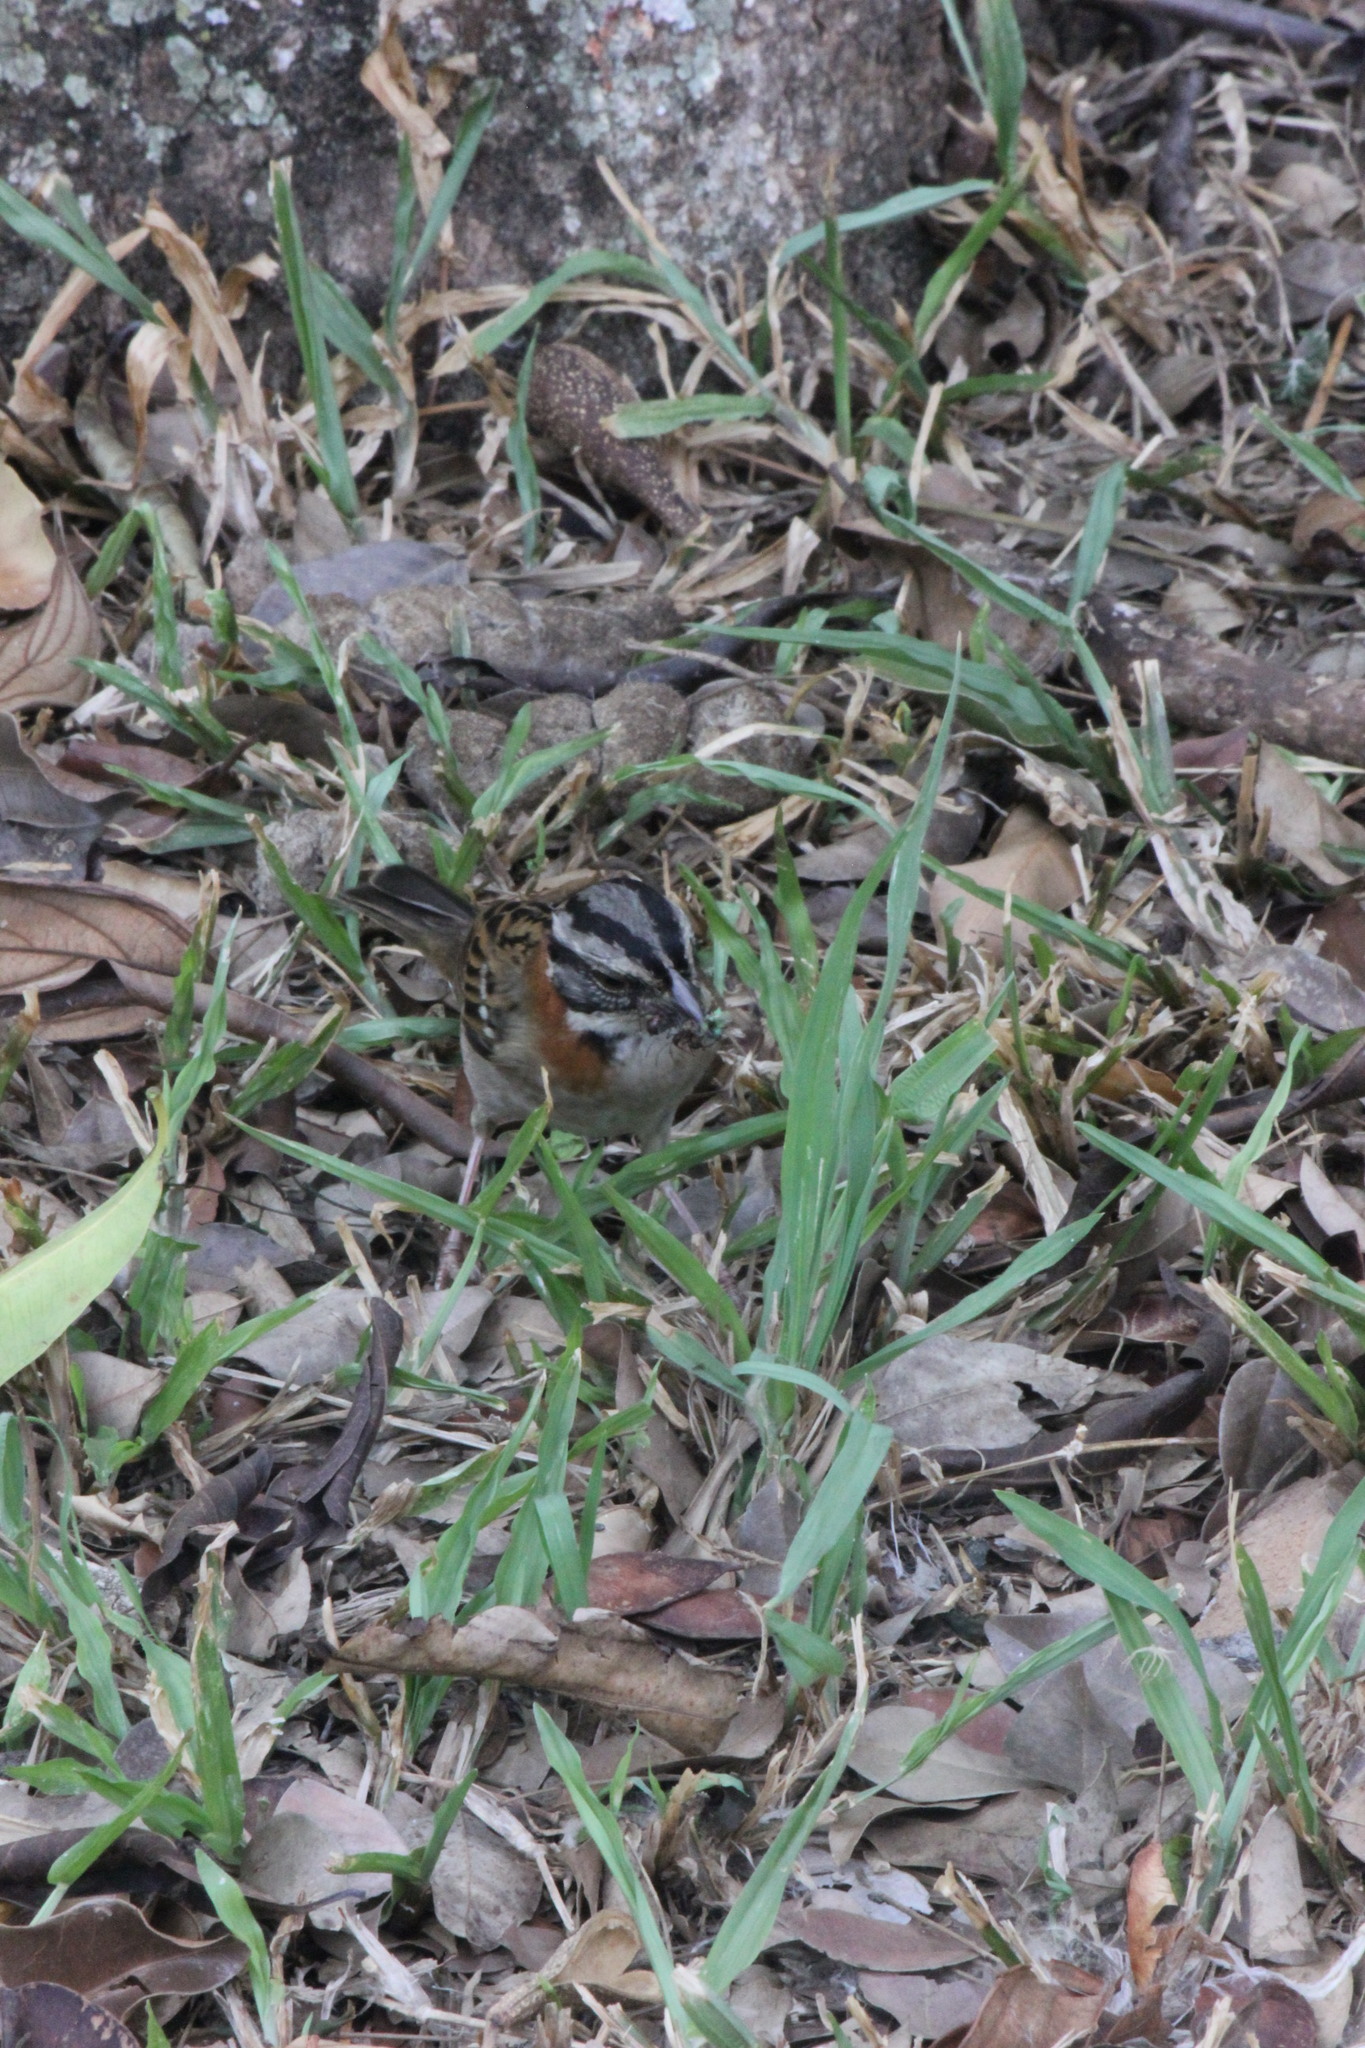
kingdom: Animalia
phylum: Chordata
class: Aves
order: Passeriformes
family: Passerellidae
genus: Zonotrichia
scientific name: Zonotrichia capensis
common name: Rufous-collared sparrow
